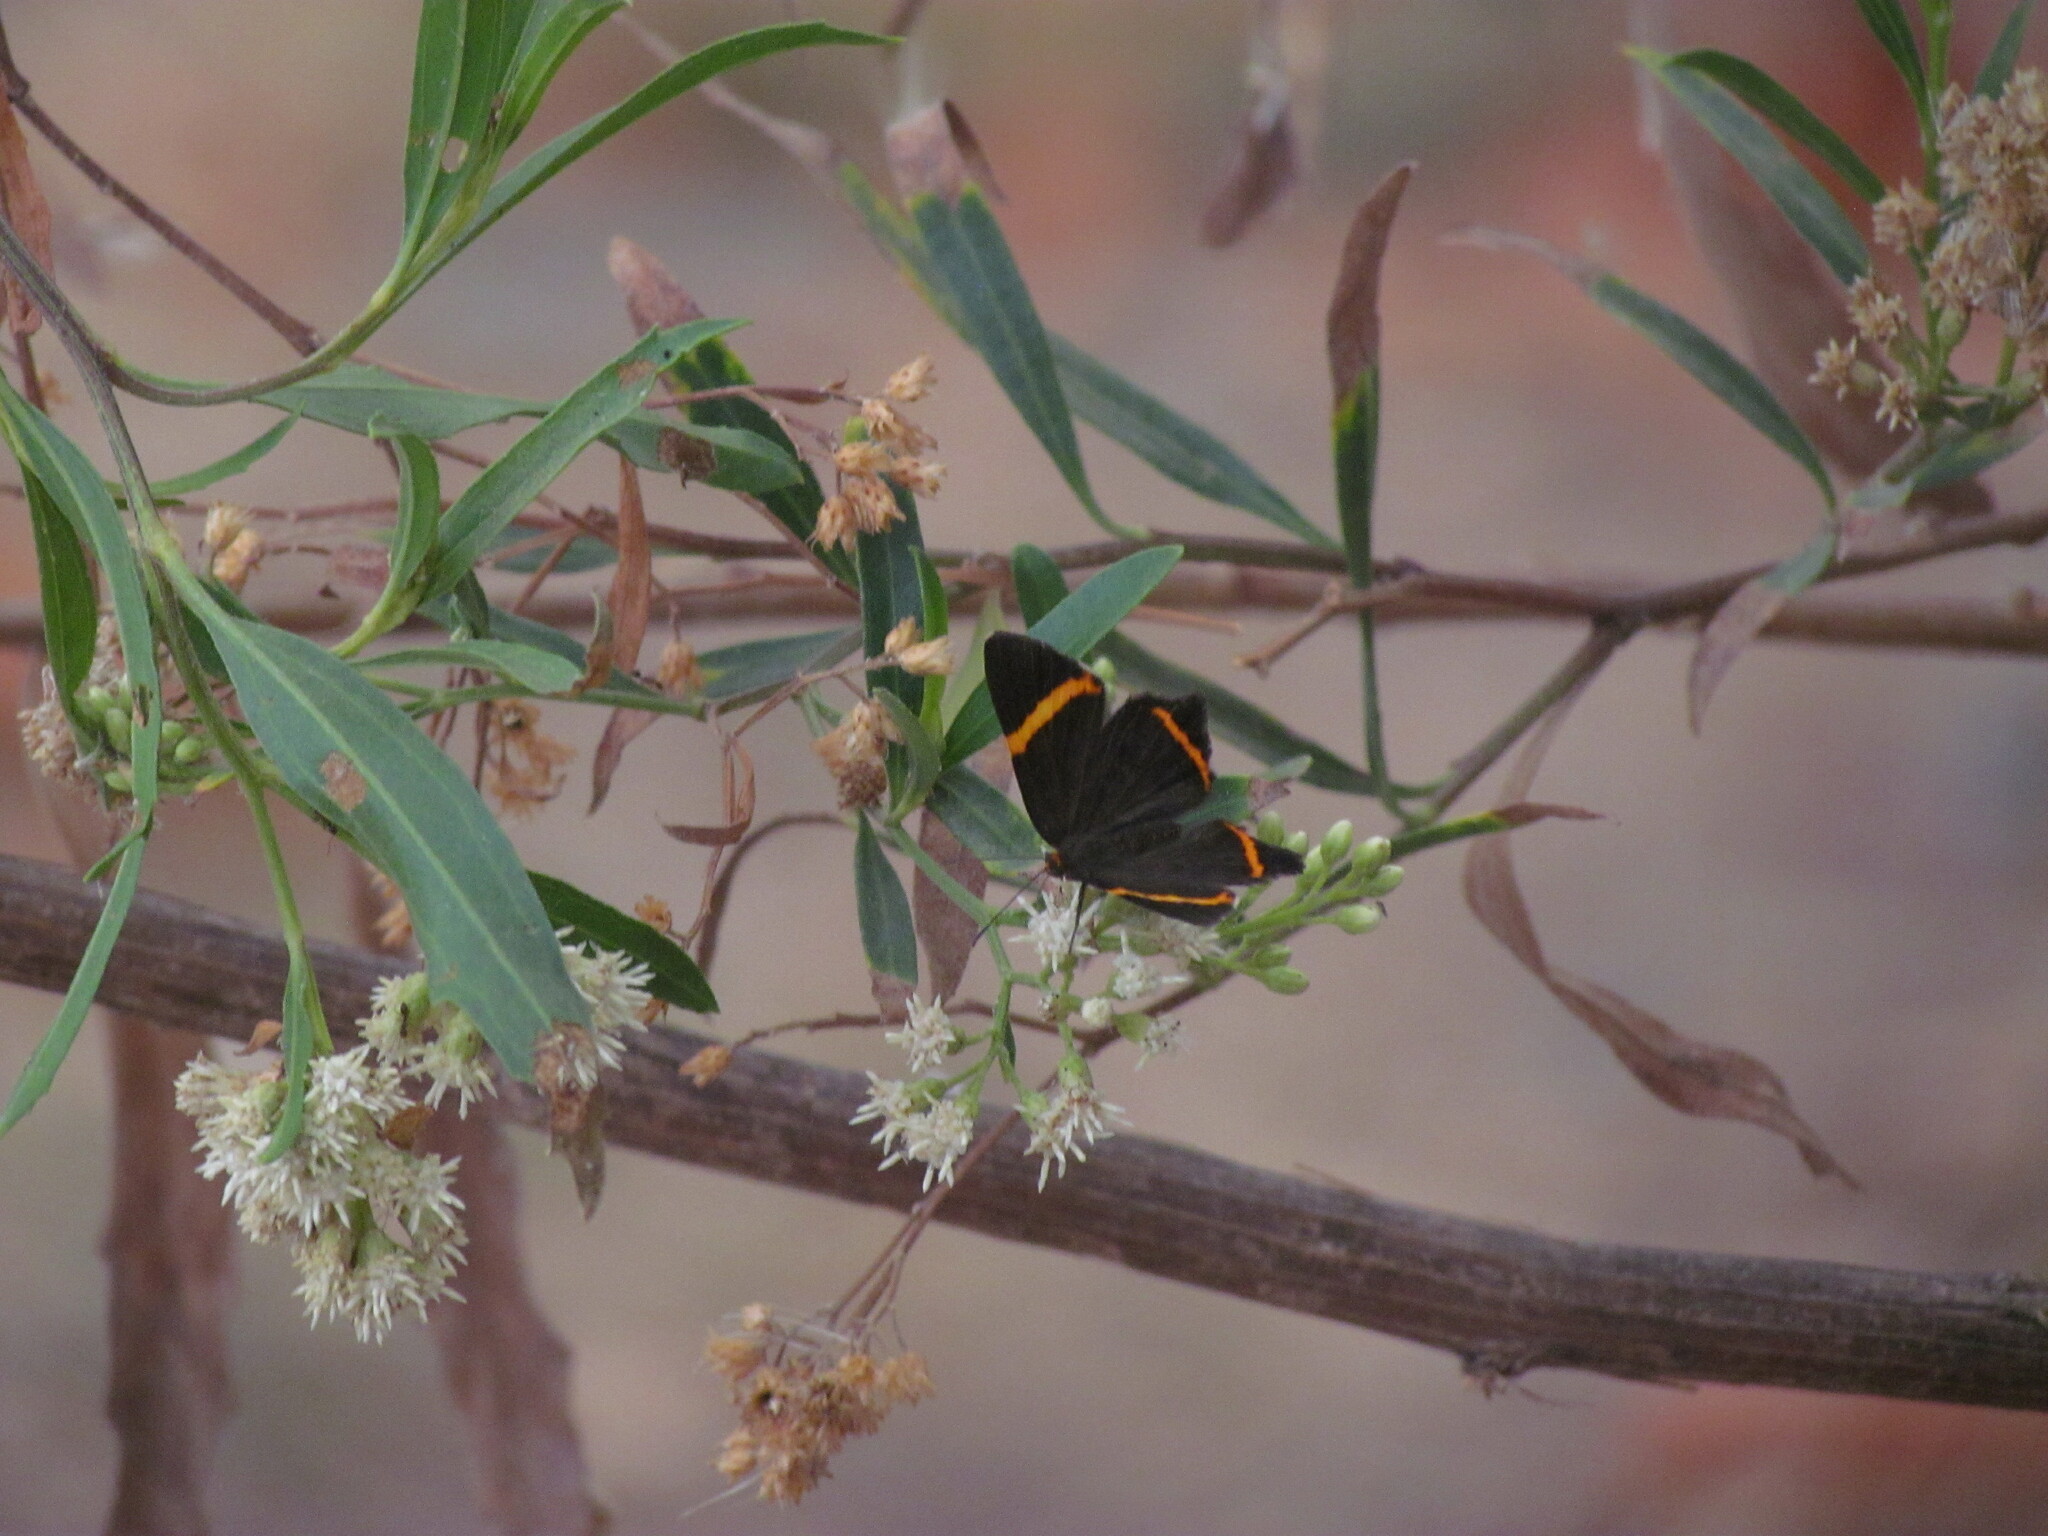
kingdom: Animalia
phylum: Arthropoda
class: Insecta
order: Lepidoptera
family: Riodinidae
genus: Riodina
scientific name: Riodina lysippoides
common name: Little dancer metalmark
